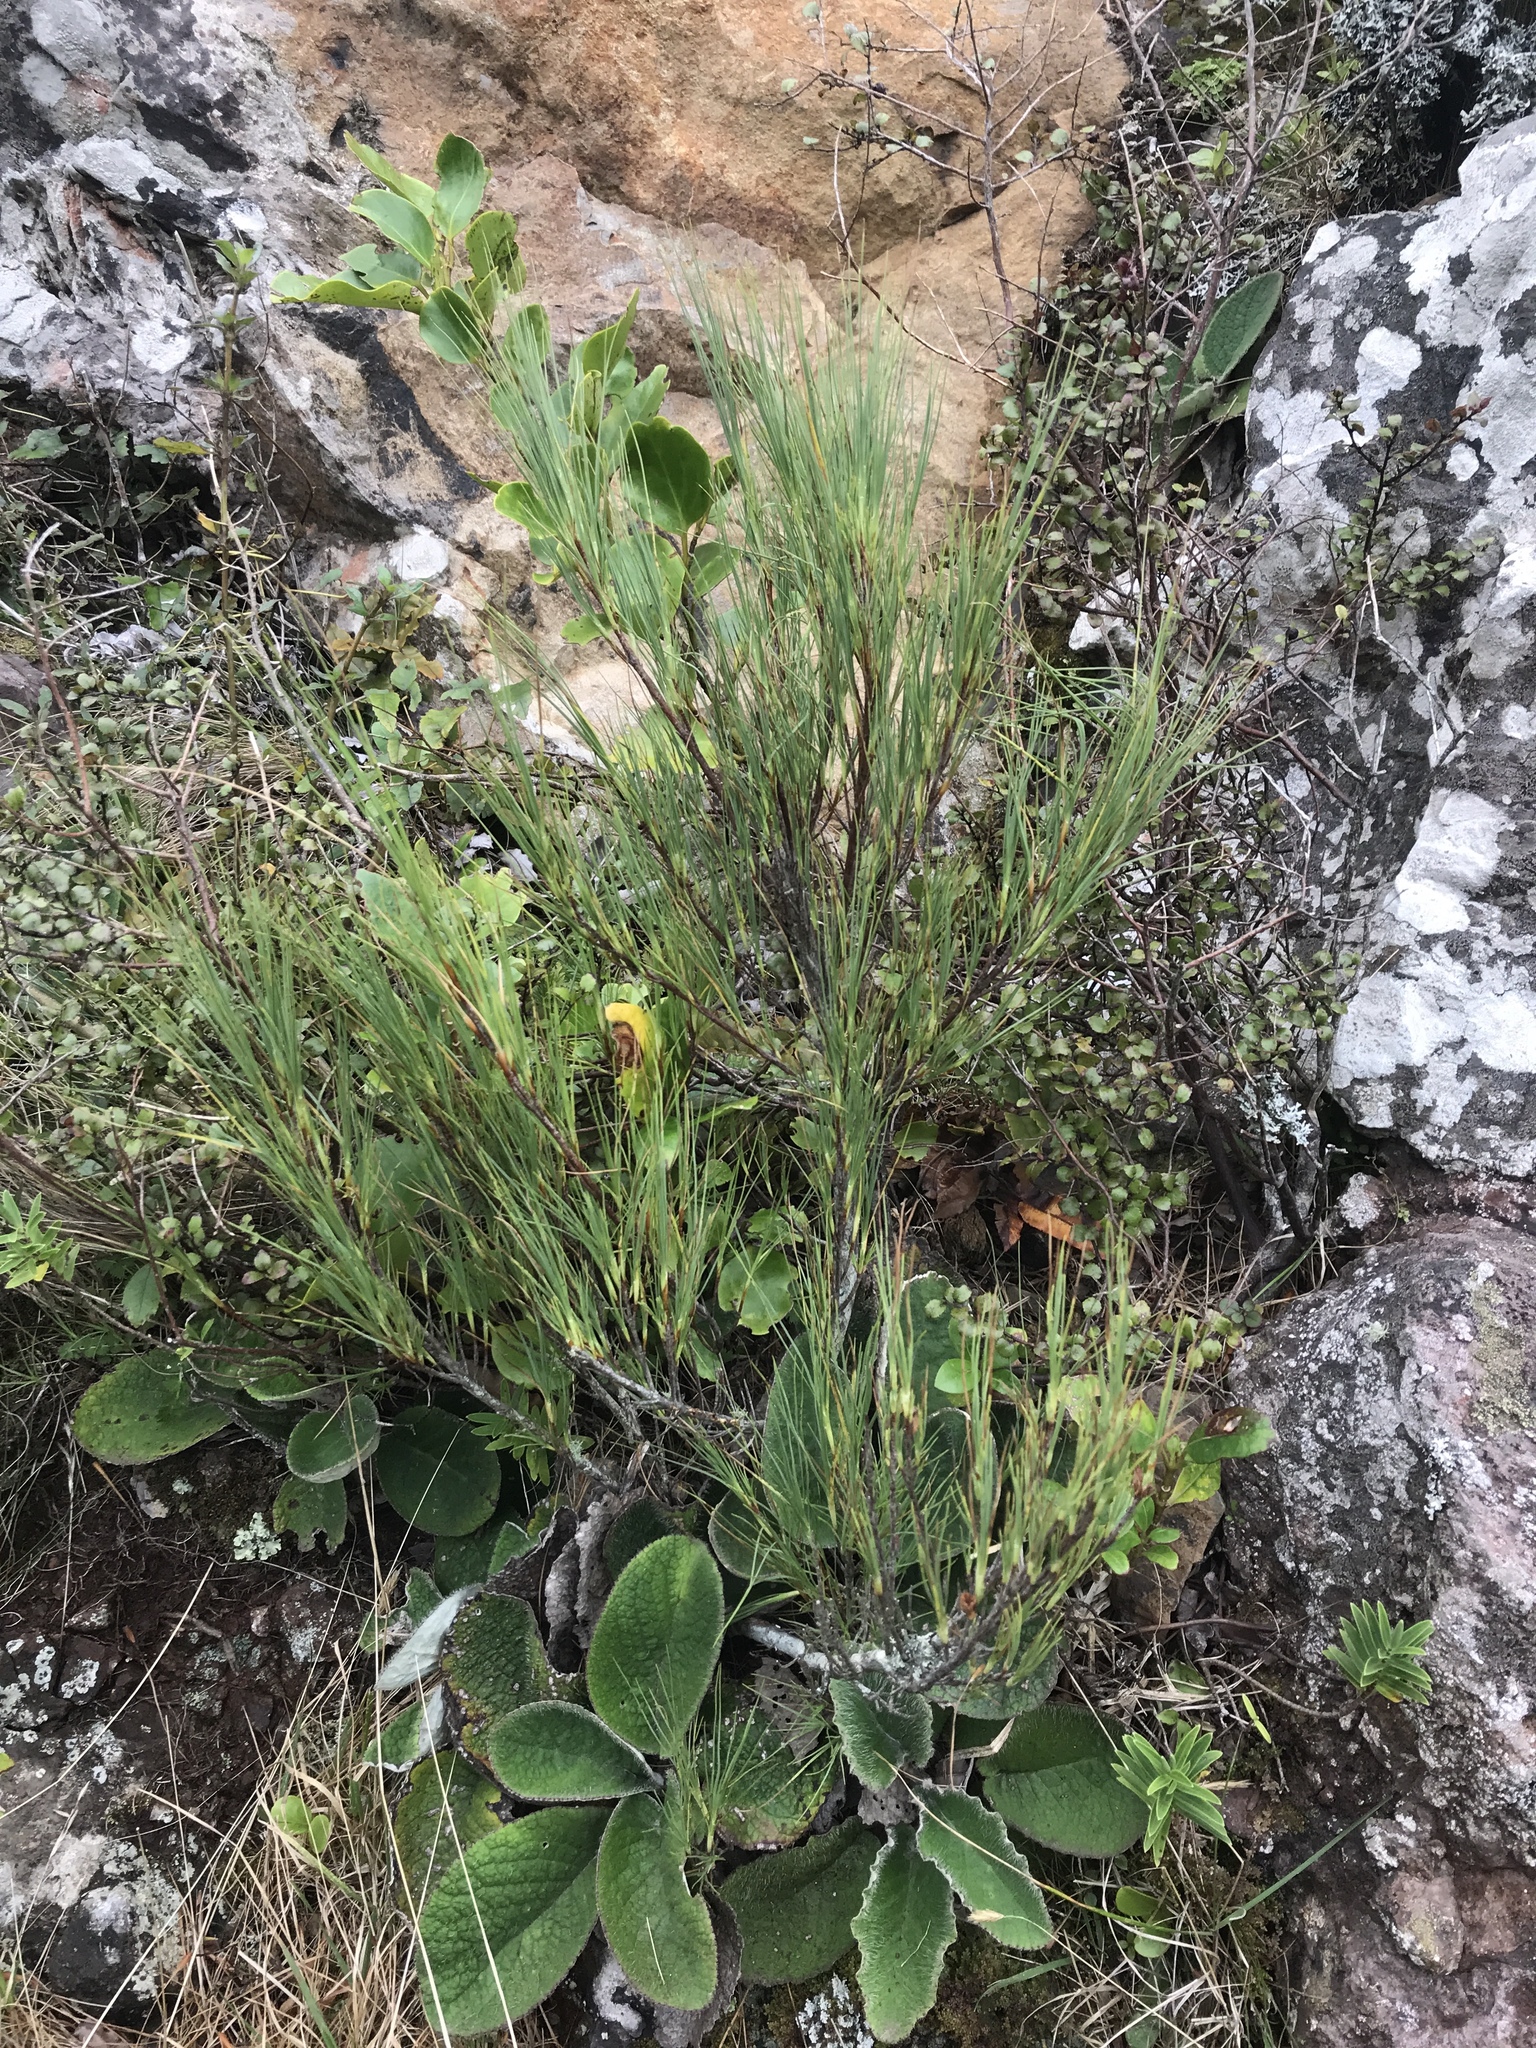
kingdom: Plantae
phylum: Tracheophyta
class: Magnoliopsida
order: Ericales
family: Ericaceae
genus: Dracophyllum
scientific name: Dracophyllum acerosum
